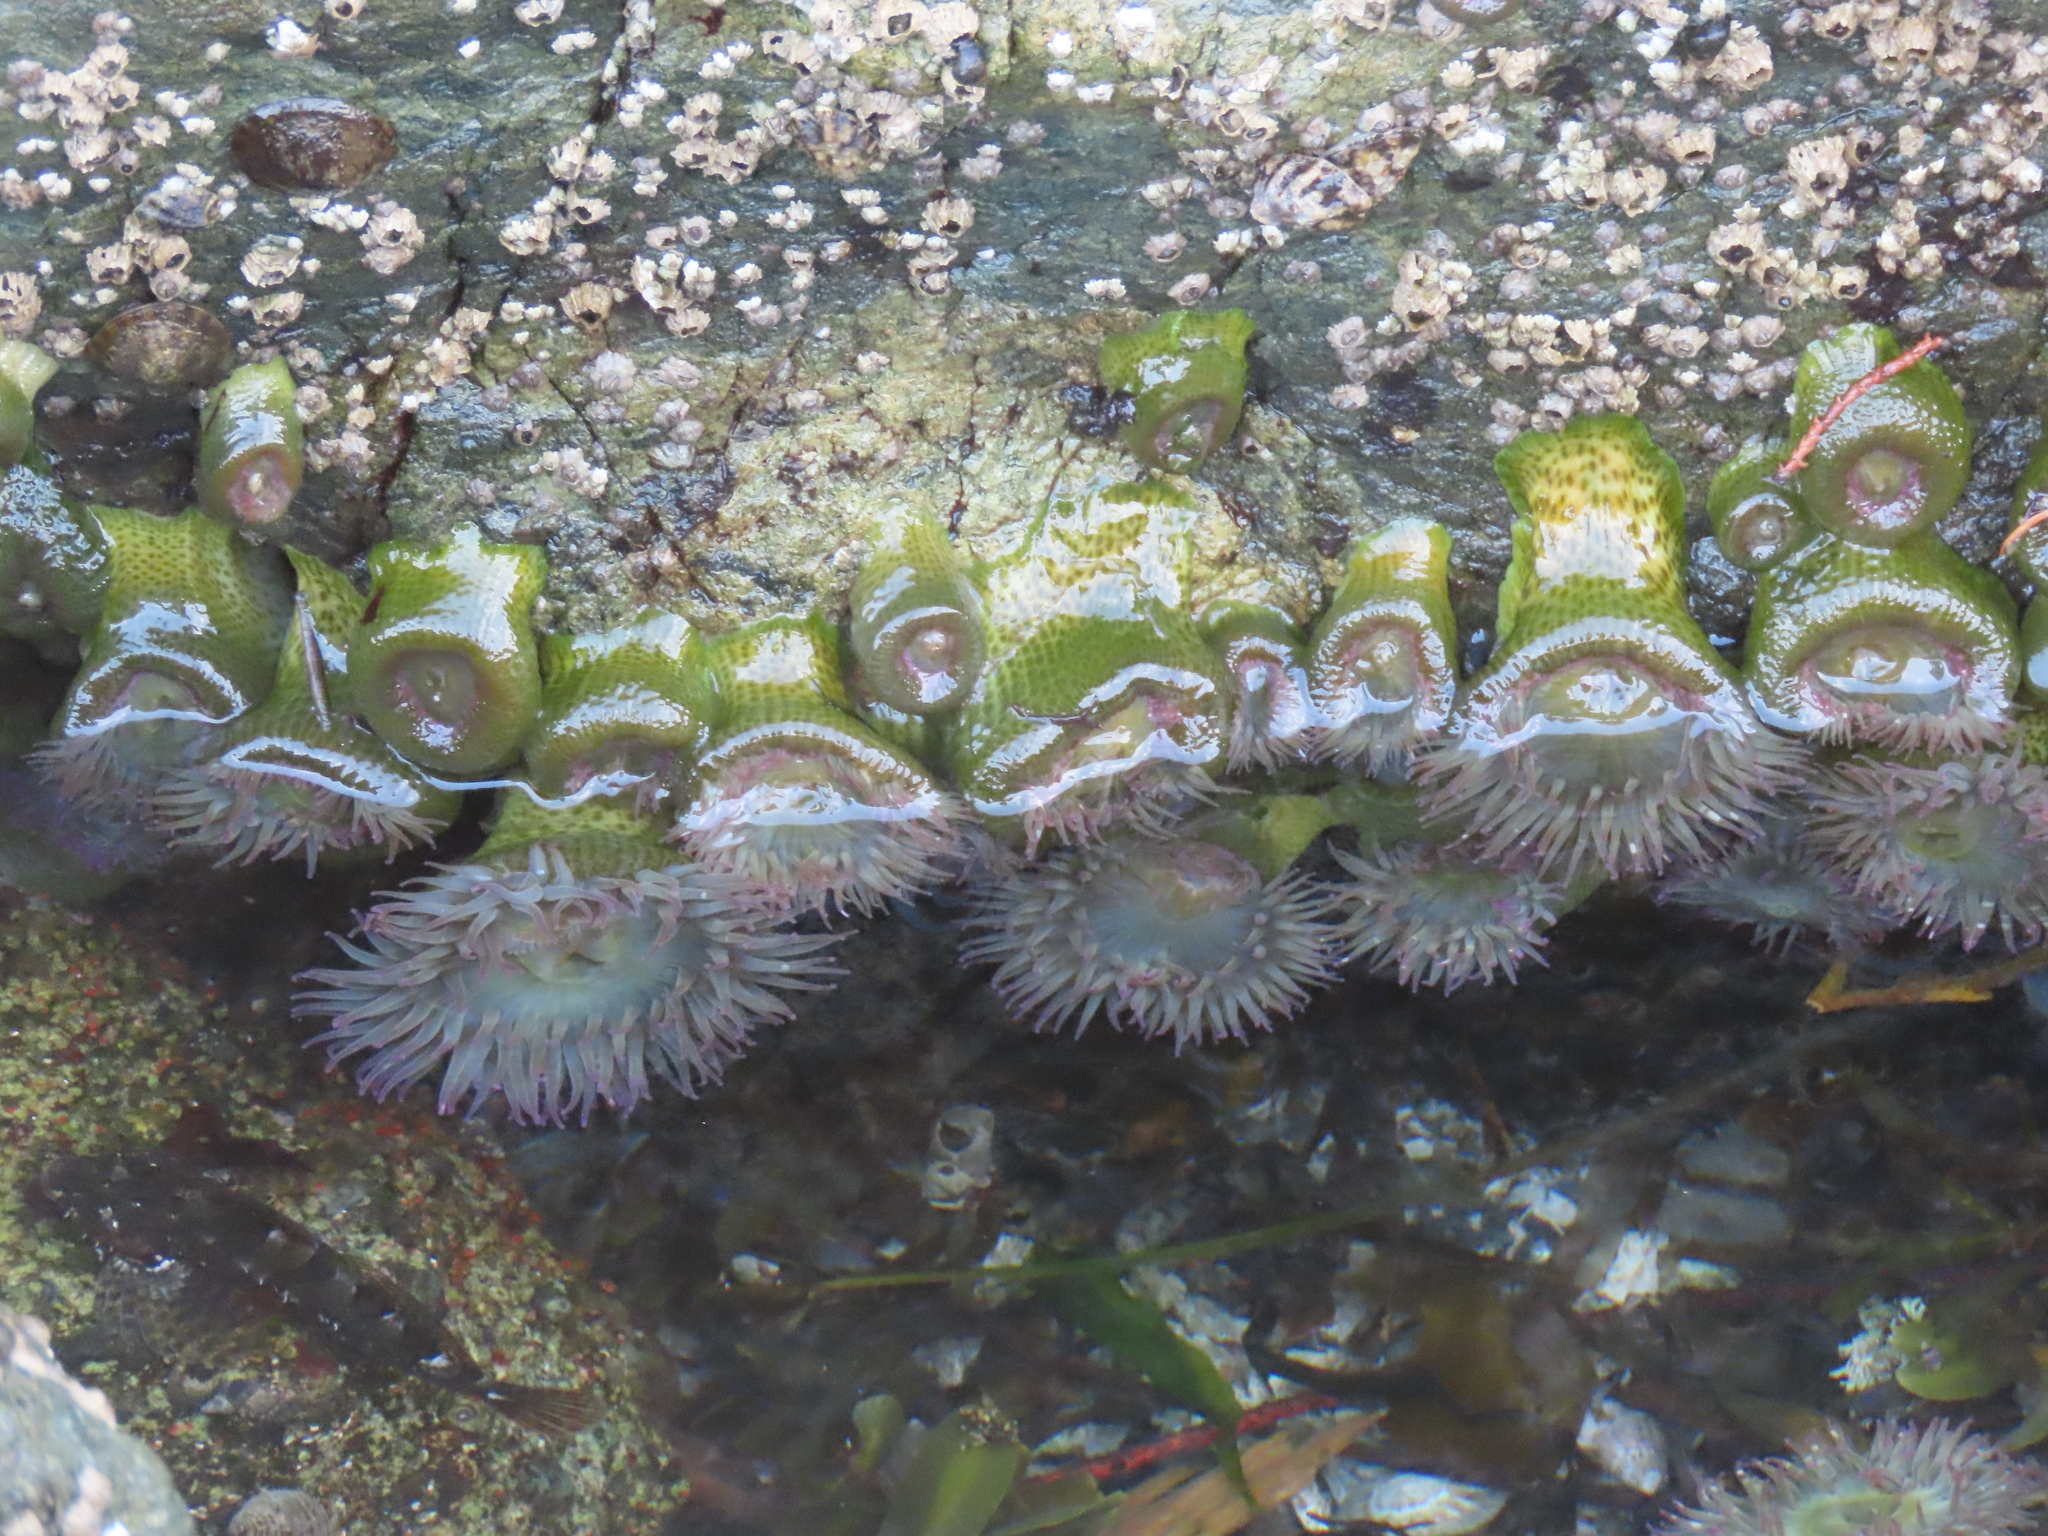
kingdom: Animalia
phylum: Cnidaria
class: Anthozoa
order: Actiniaria
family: Actiniidae
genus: Anthopleura
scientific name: Anthopleura elegantissima
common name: Clonal anemone
